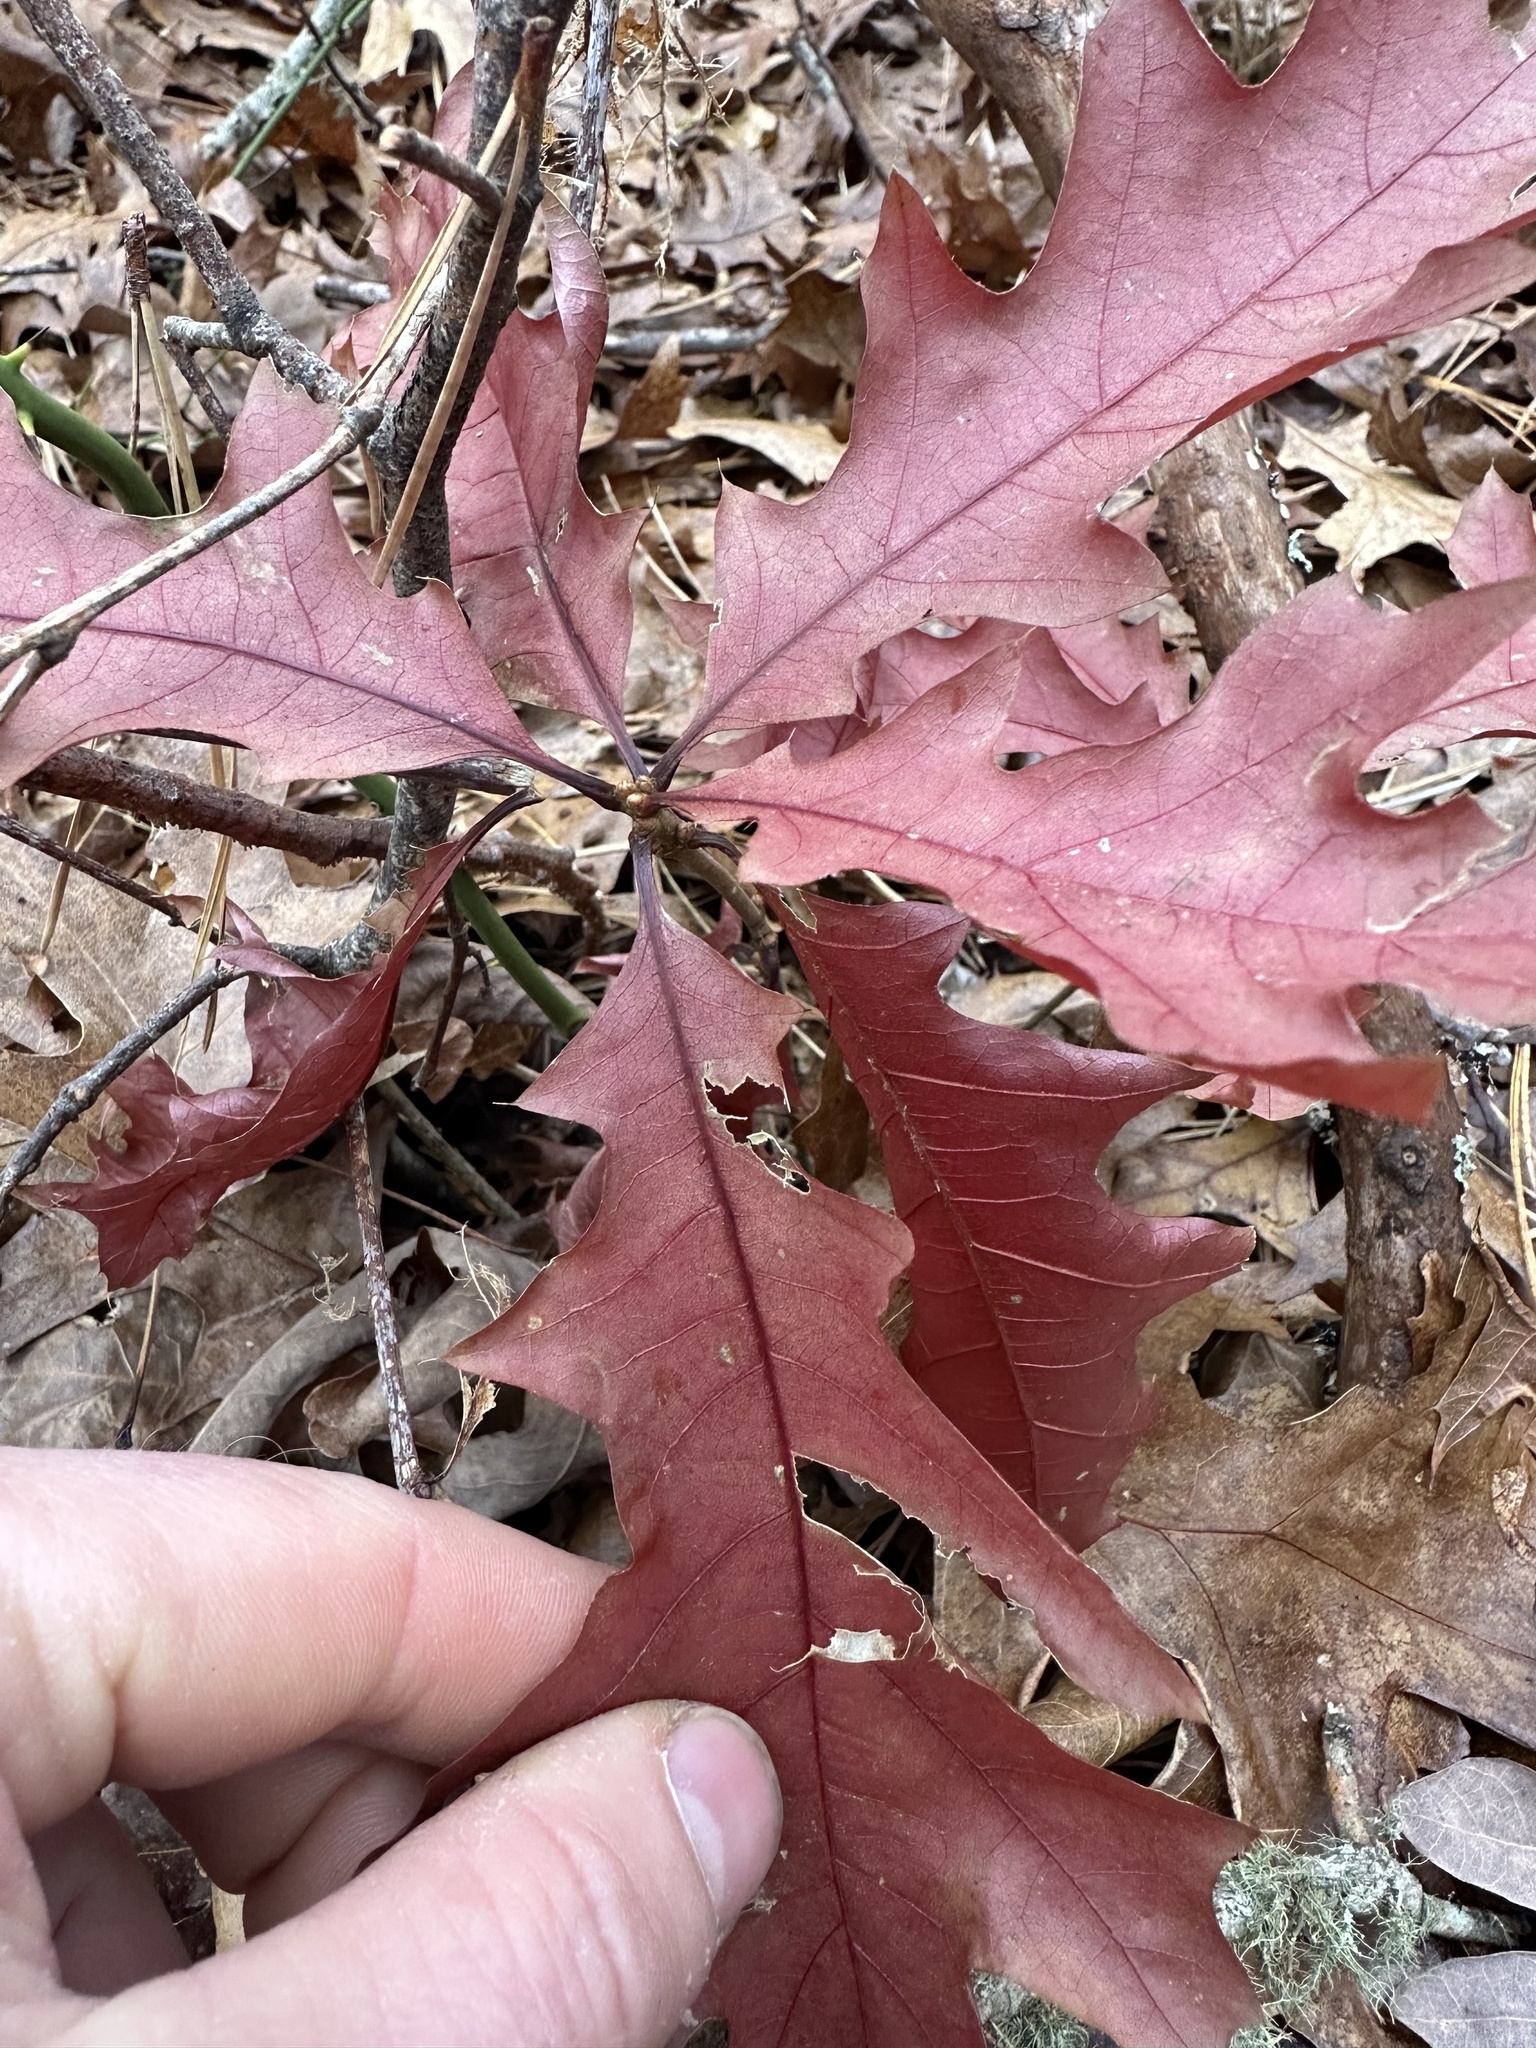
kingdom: Plantae
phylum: Tracheophyta
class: Magnoliopsida
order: Fagales
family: Fagaceae
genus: Quercus
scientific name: Quercus coccinea
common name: Scarlet oak
